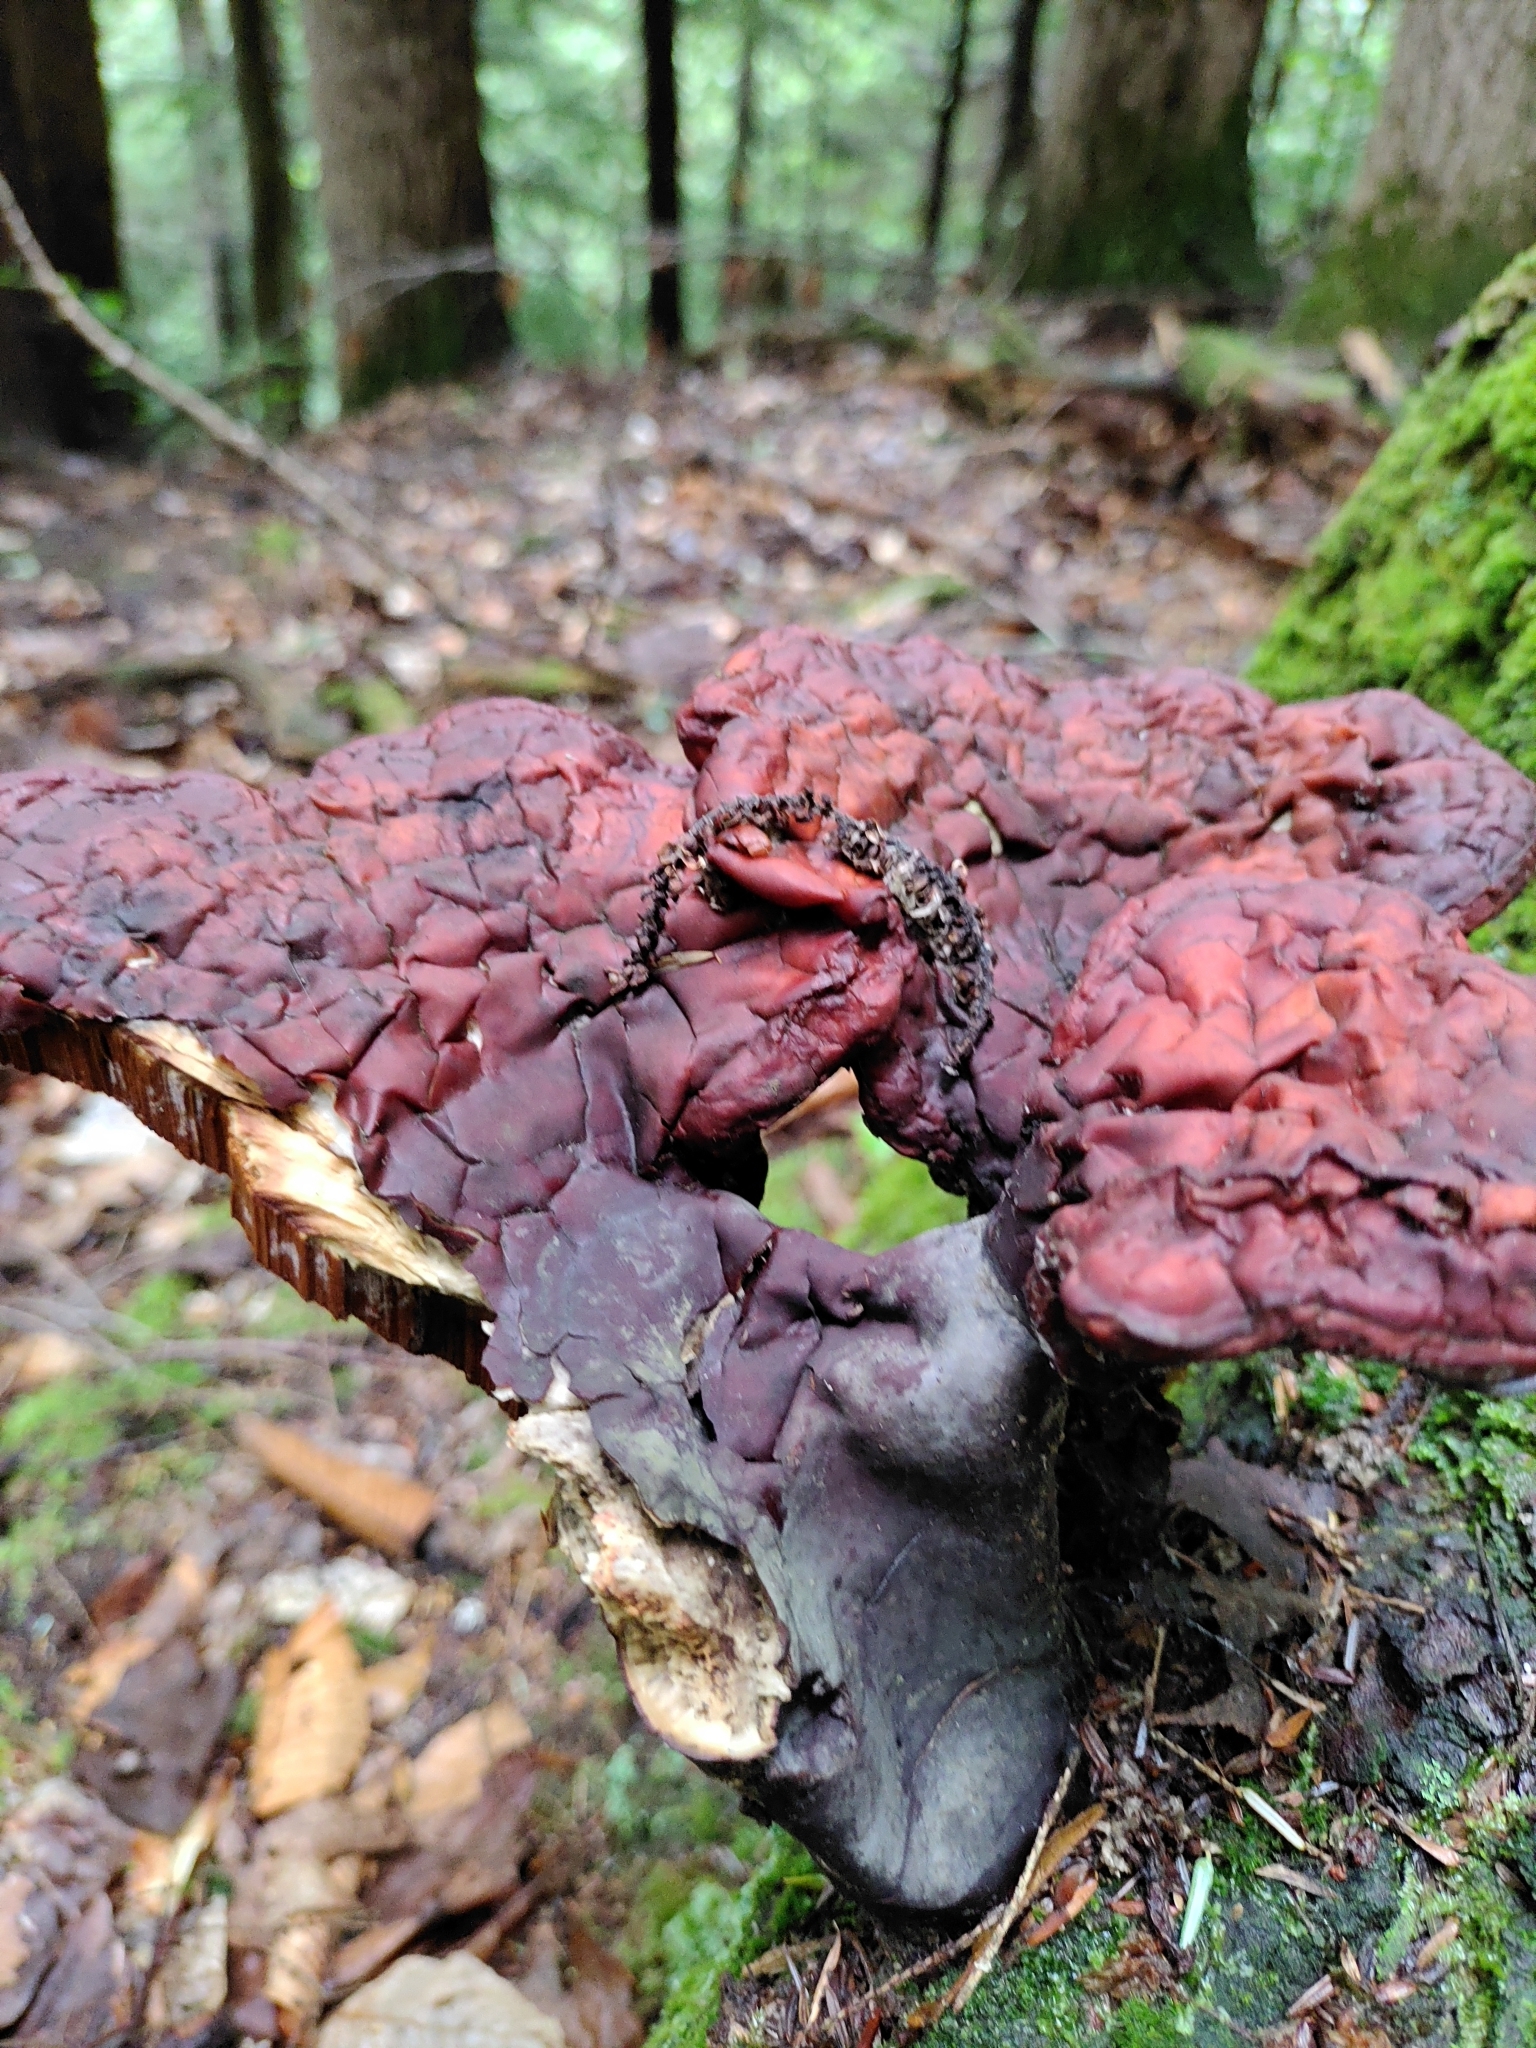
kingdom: Fungi
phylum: Basidiomycota
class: Agaricomycetes
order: Polyporales
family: Polyporaceae
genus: Ganoderma
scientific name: Ganoderma tsugae
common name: Hemlock varnish shelf
